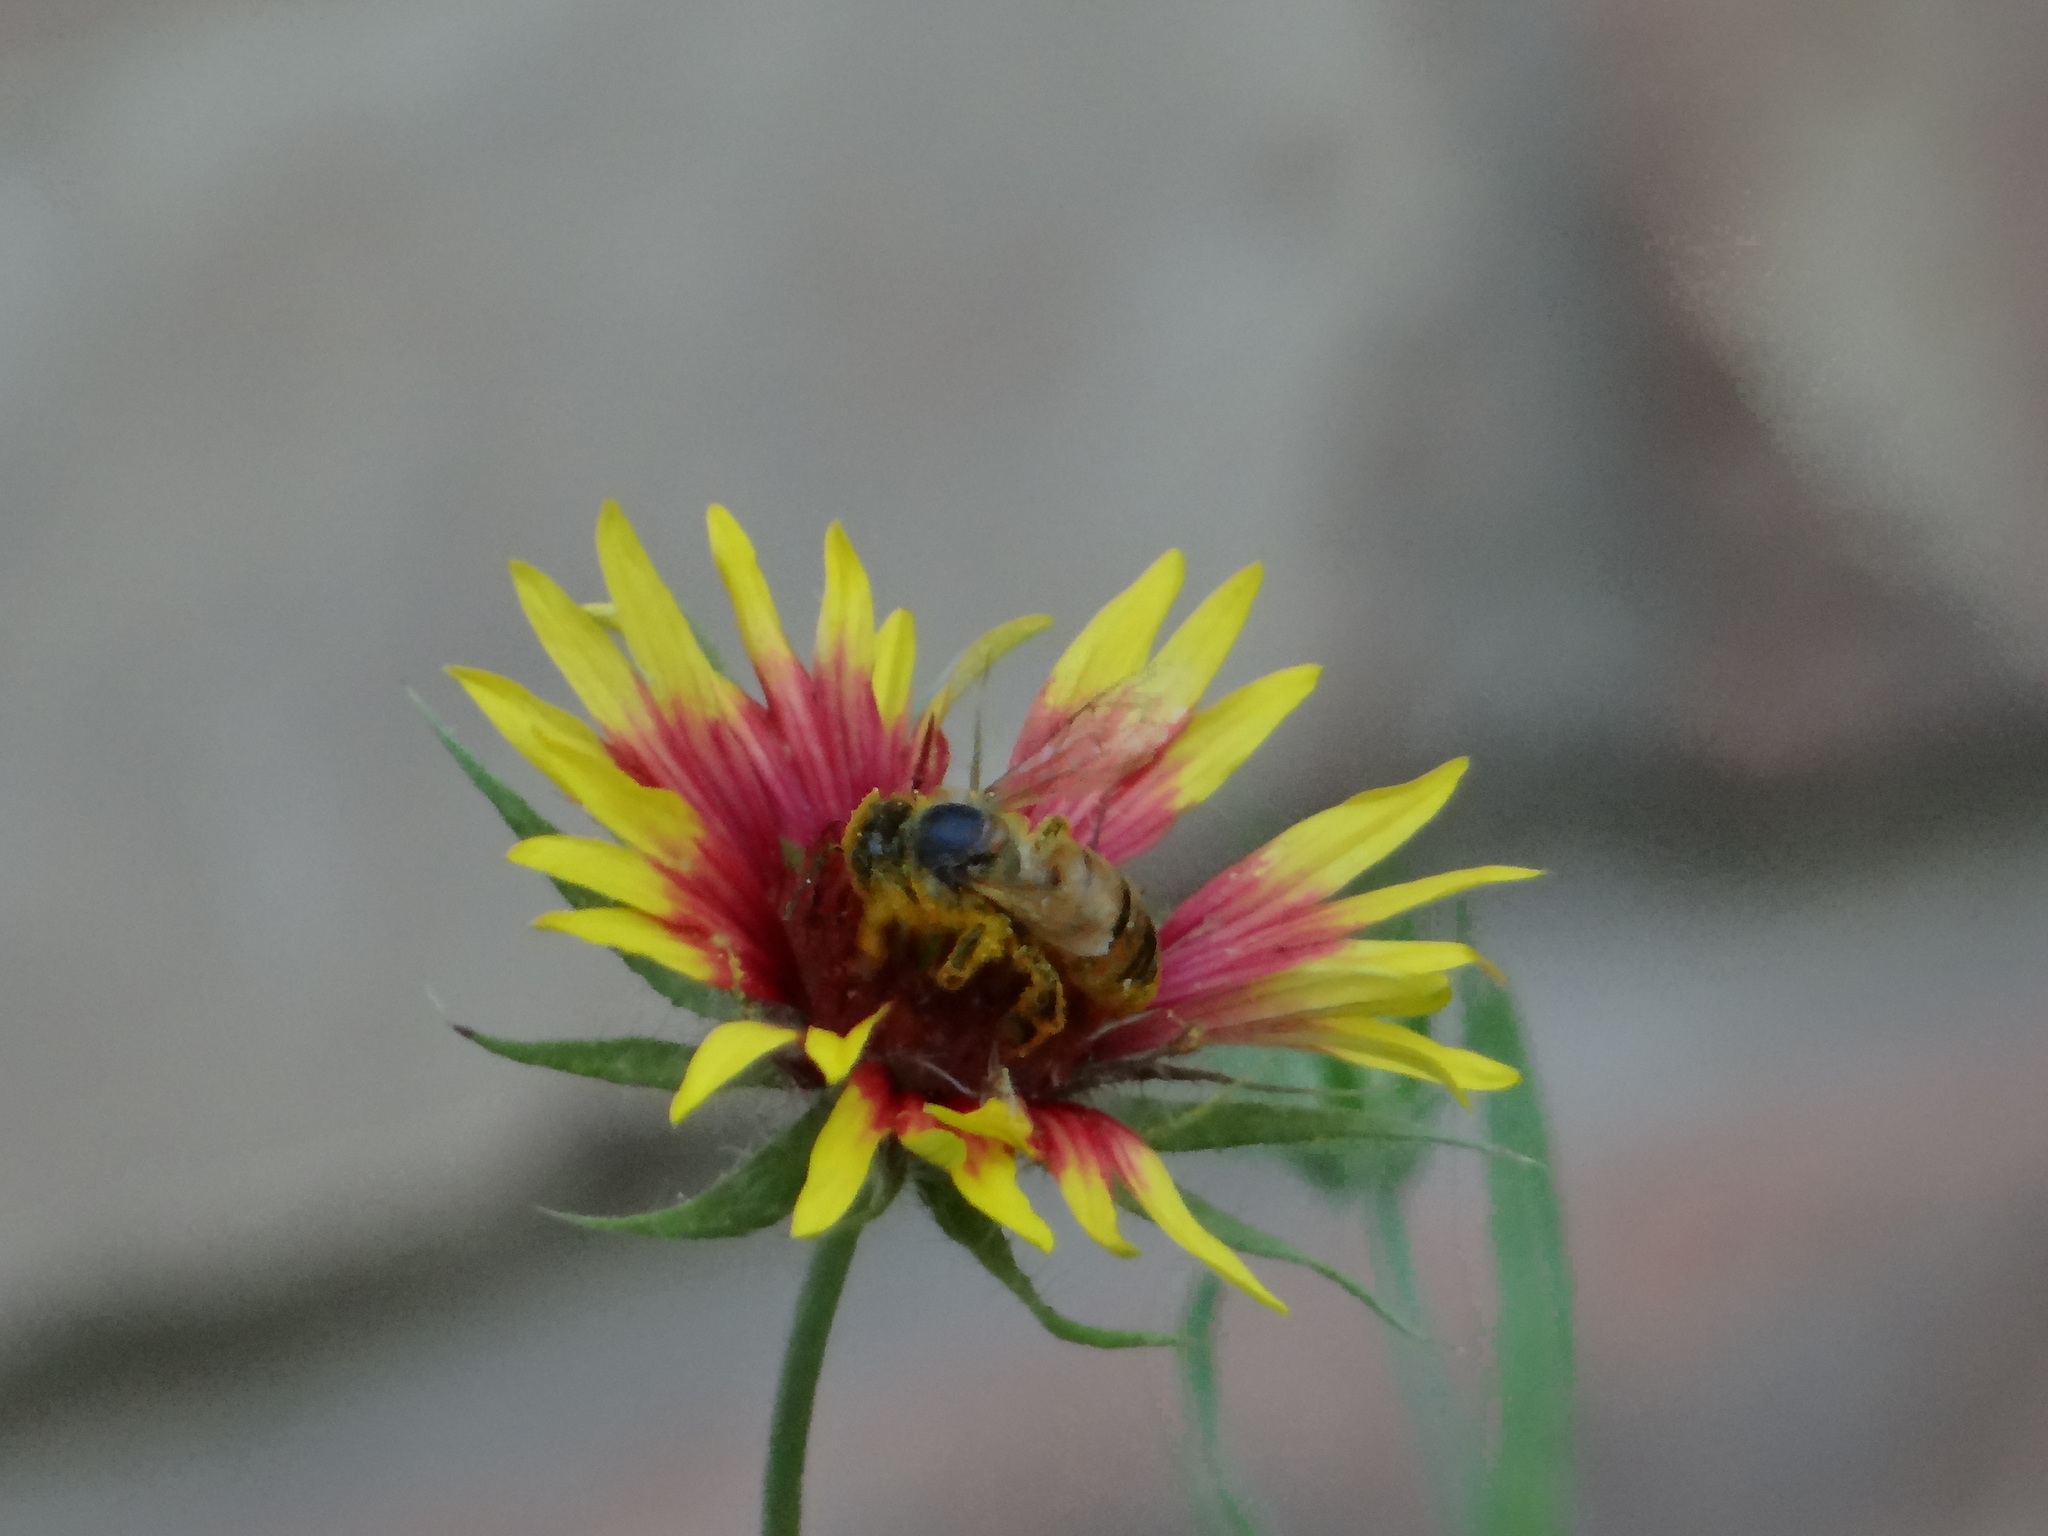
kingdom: Animalia
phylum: Arthropoda
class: Insecta
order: Hymenoptera
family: Apidae
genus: Apis
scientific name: Apis mellifera
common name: Honey bee
